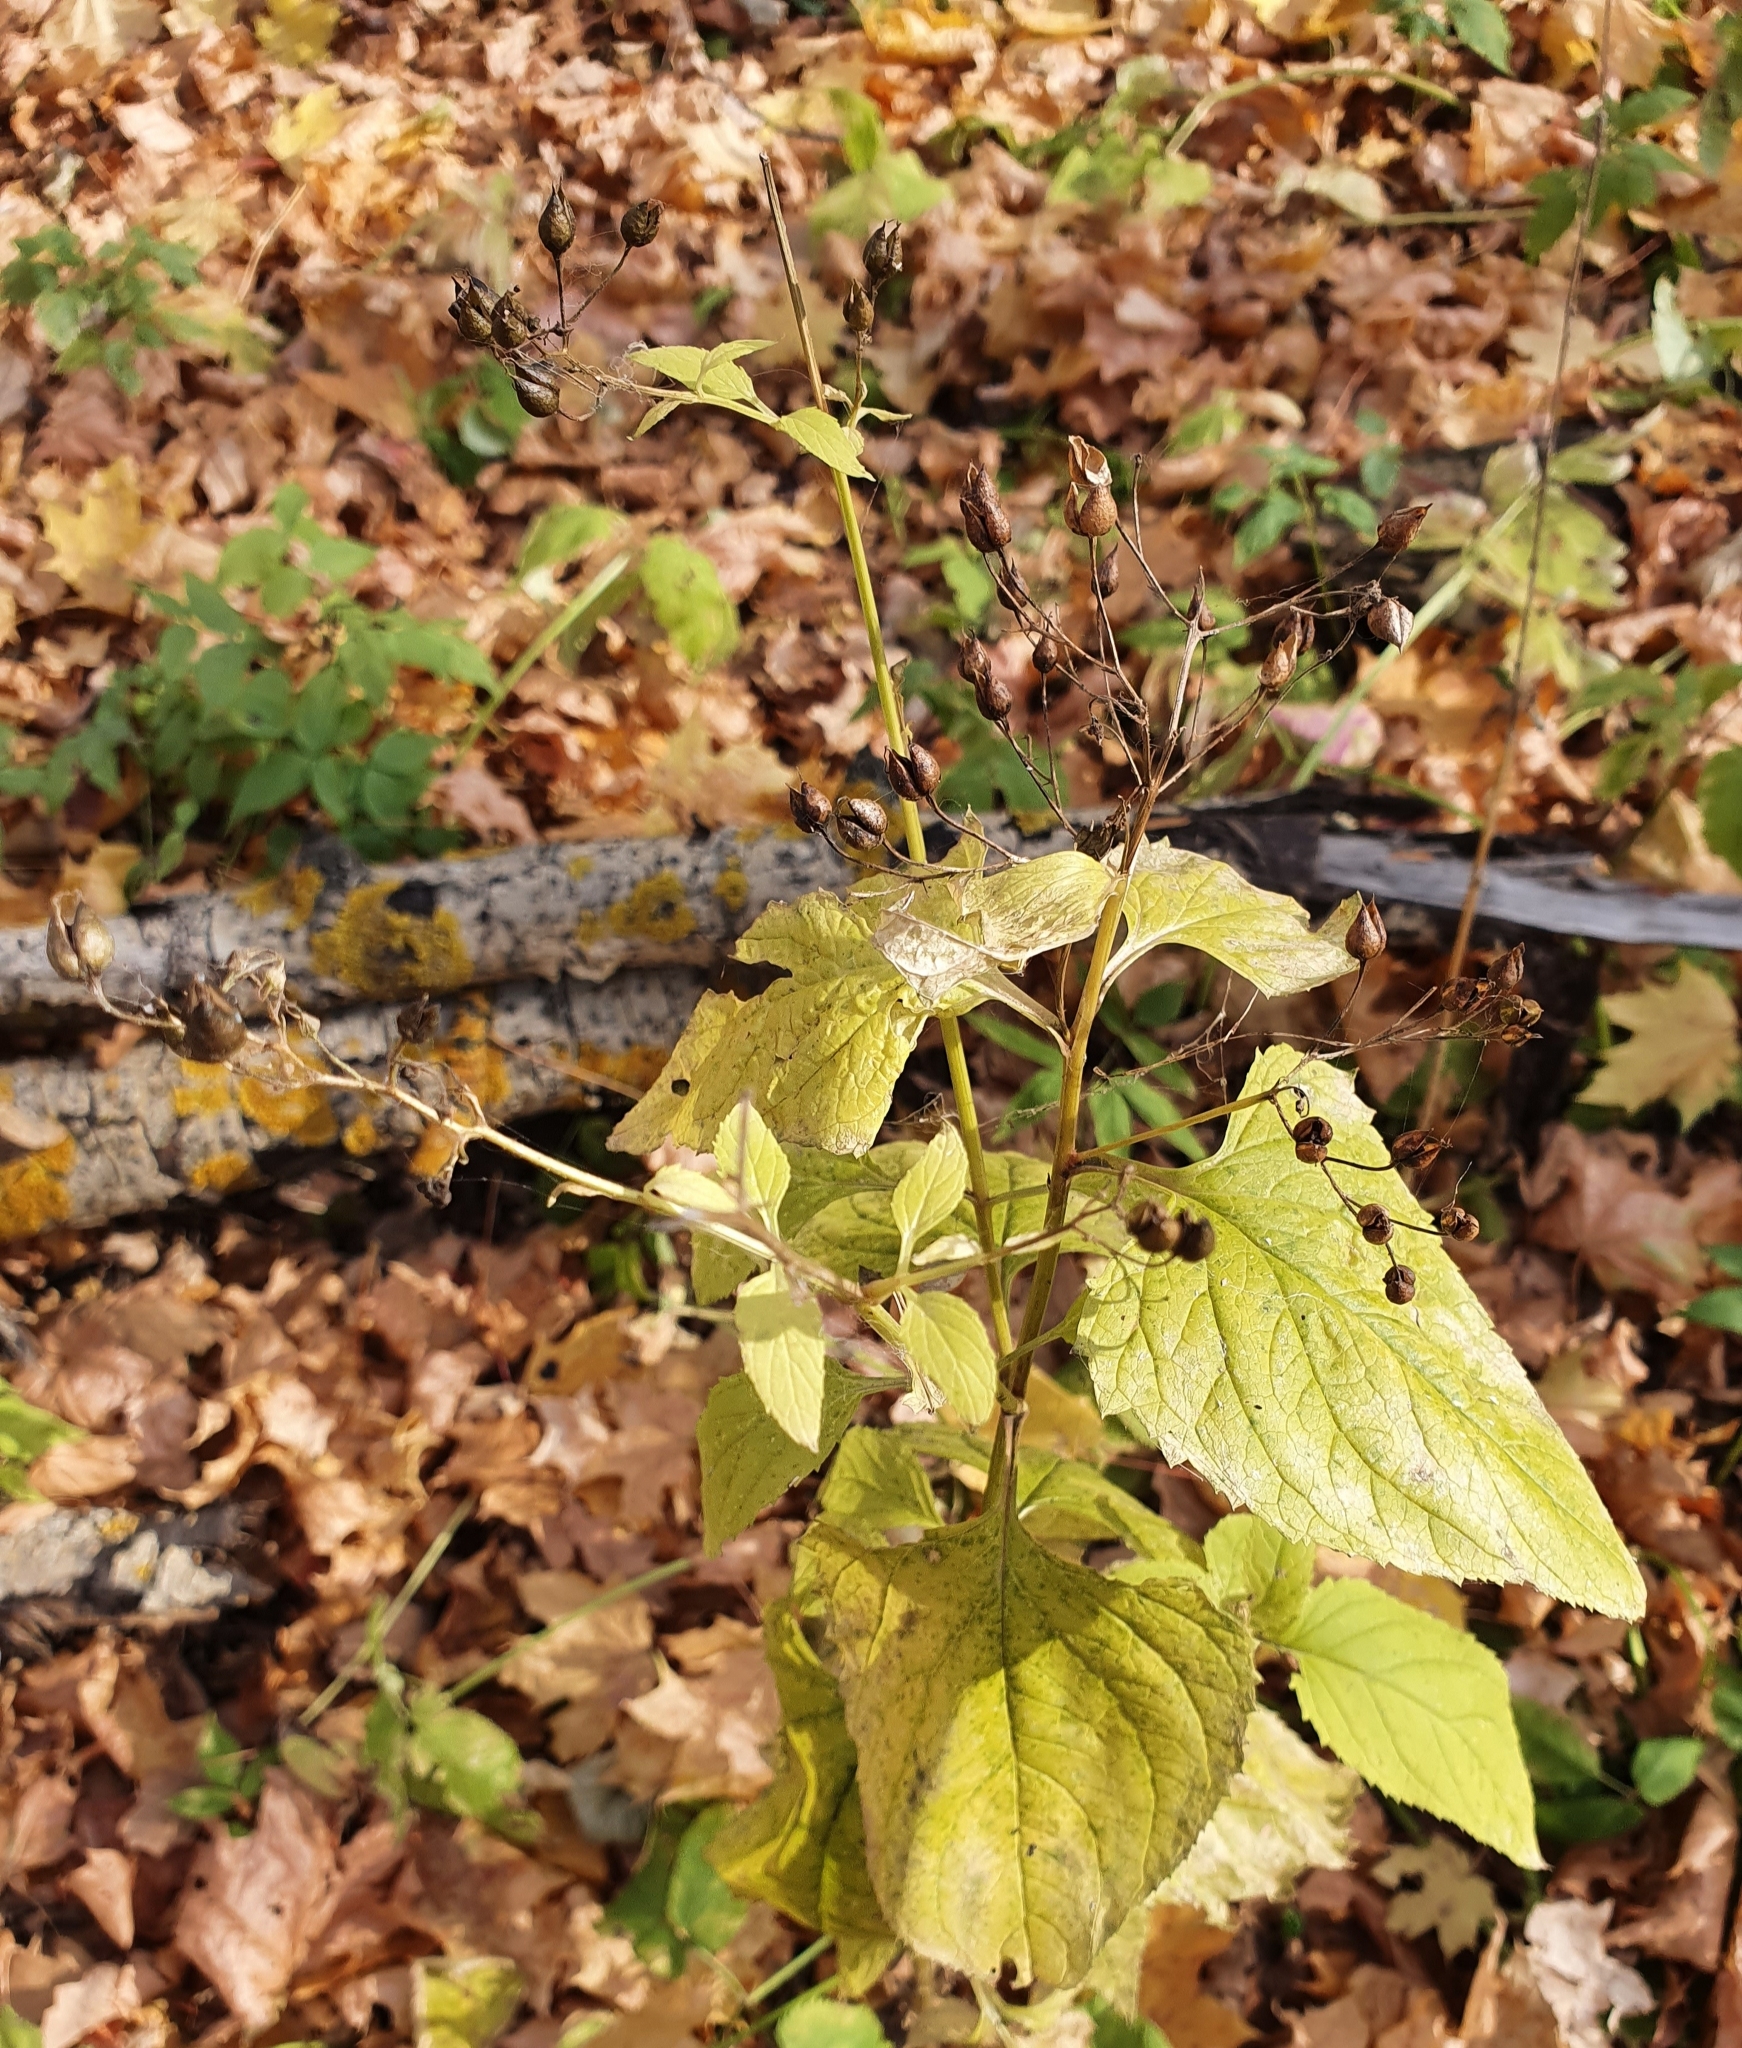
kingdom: Plantae
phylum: Tracheophyta
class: Magnoliopsida
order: Lamiales
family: Scrophulariaceae
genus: Scrophularia
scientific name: Scrophularia nodosa
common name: Common figwort
